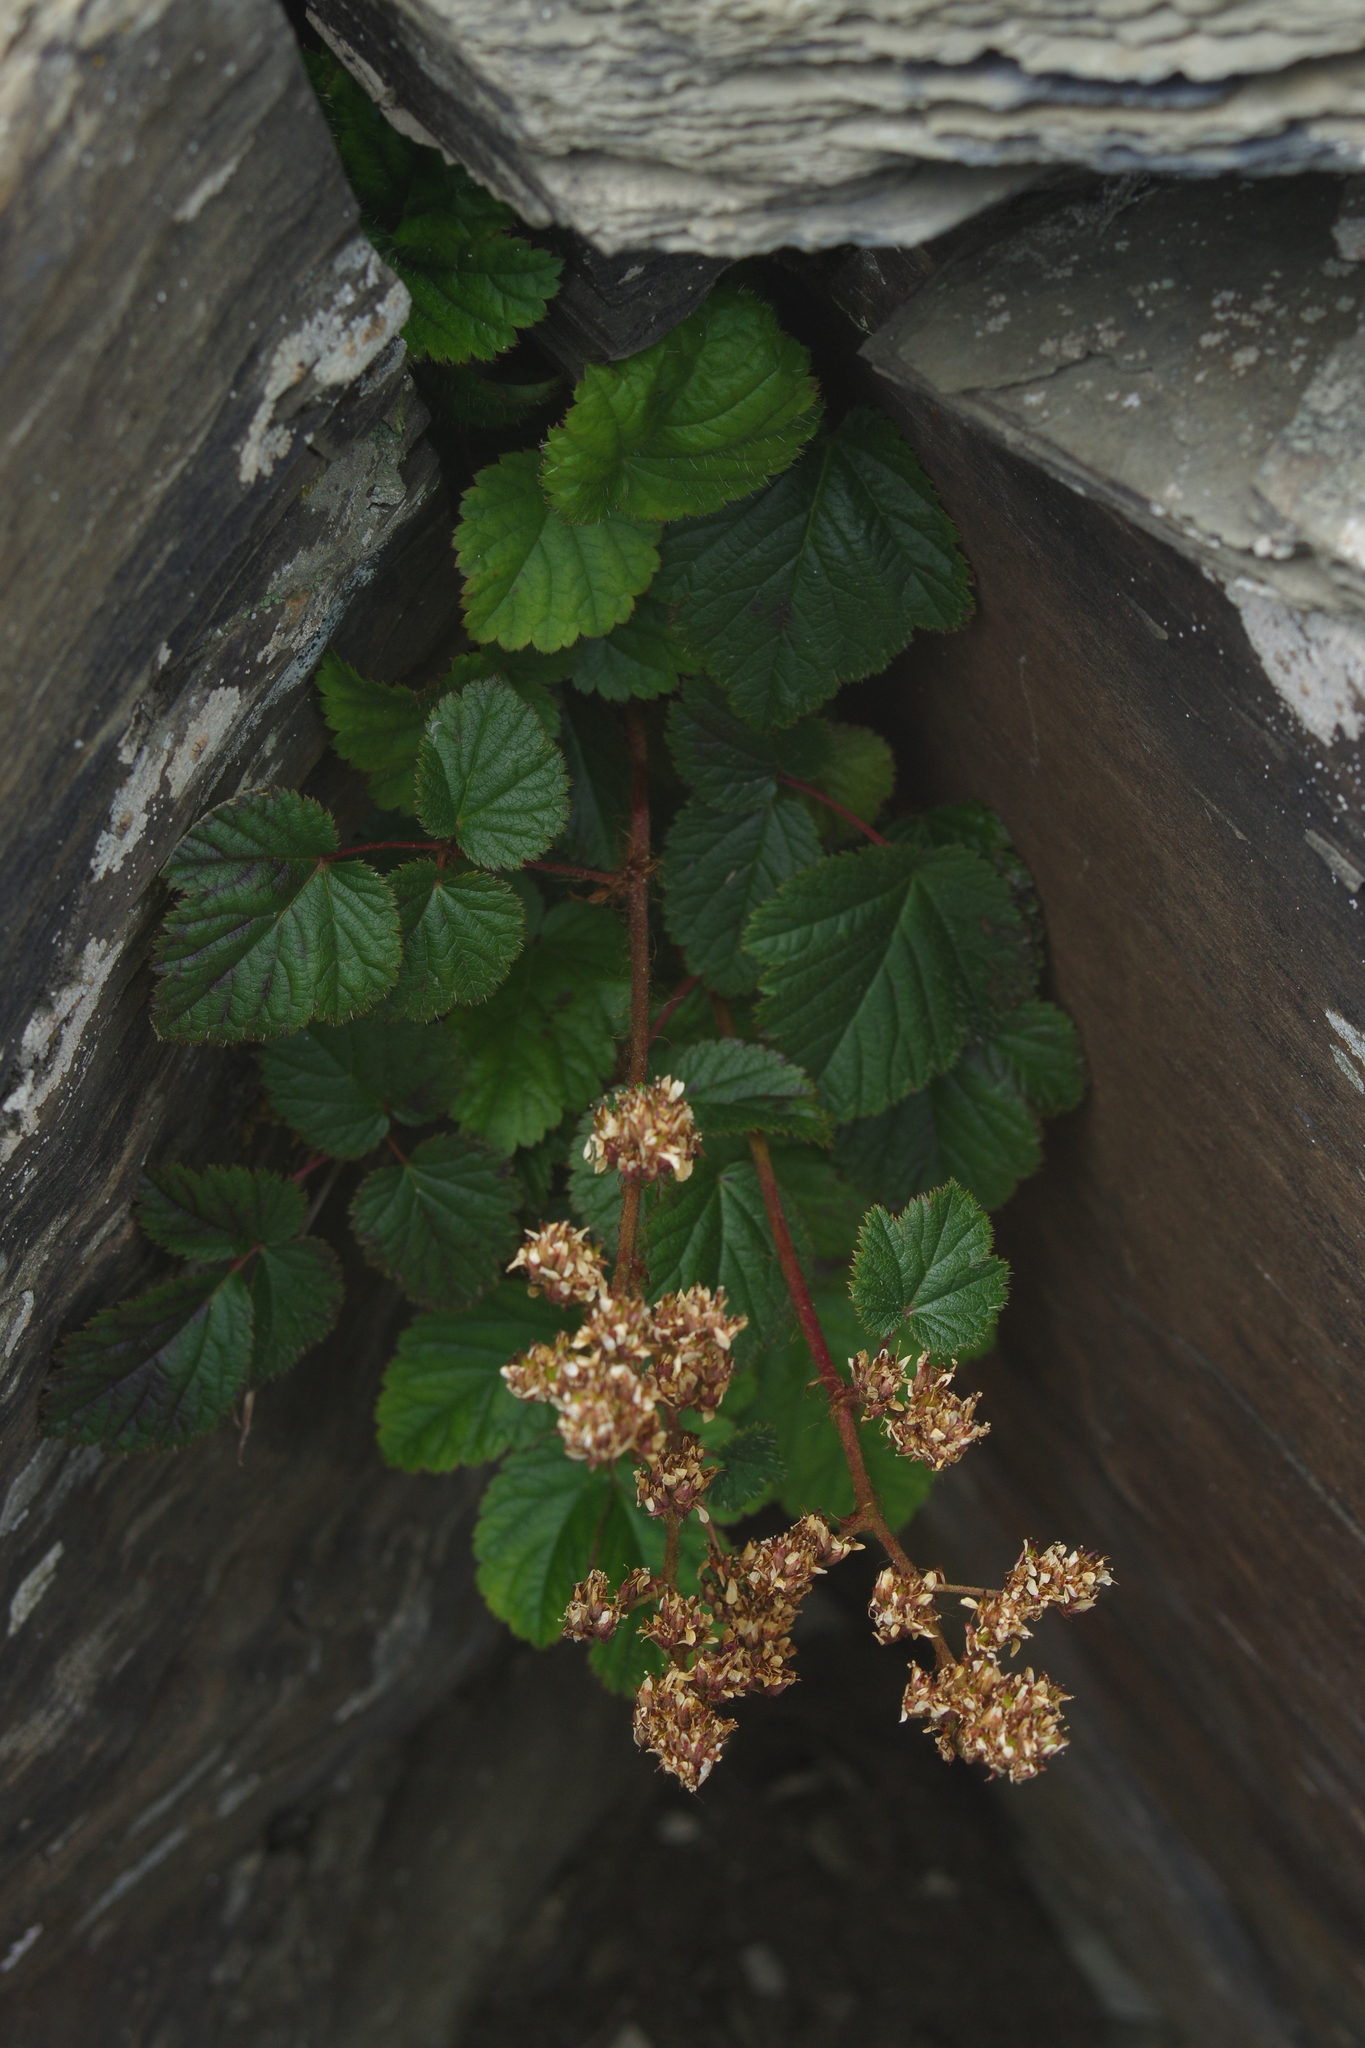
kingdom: Plantae
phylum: Tracheophyta
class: Magnoliopsida
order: Saxifragales
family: Saxifragaceae
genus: Astilbe
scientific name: Astilbe macroflora
